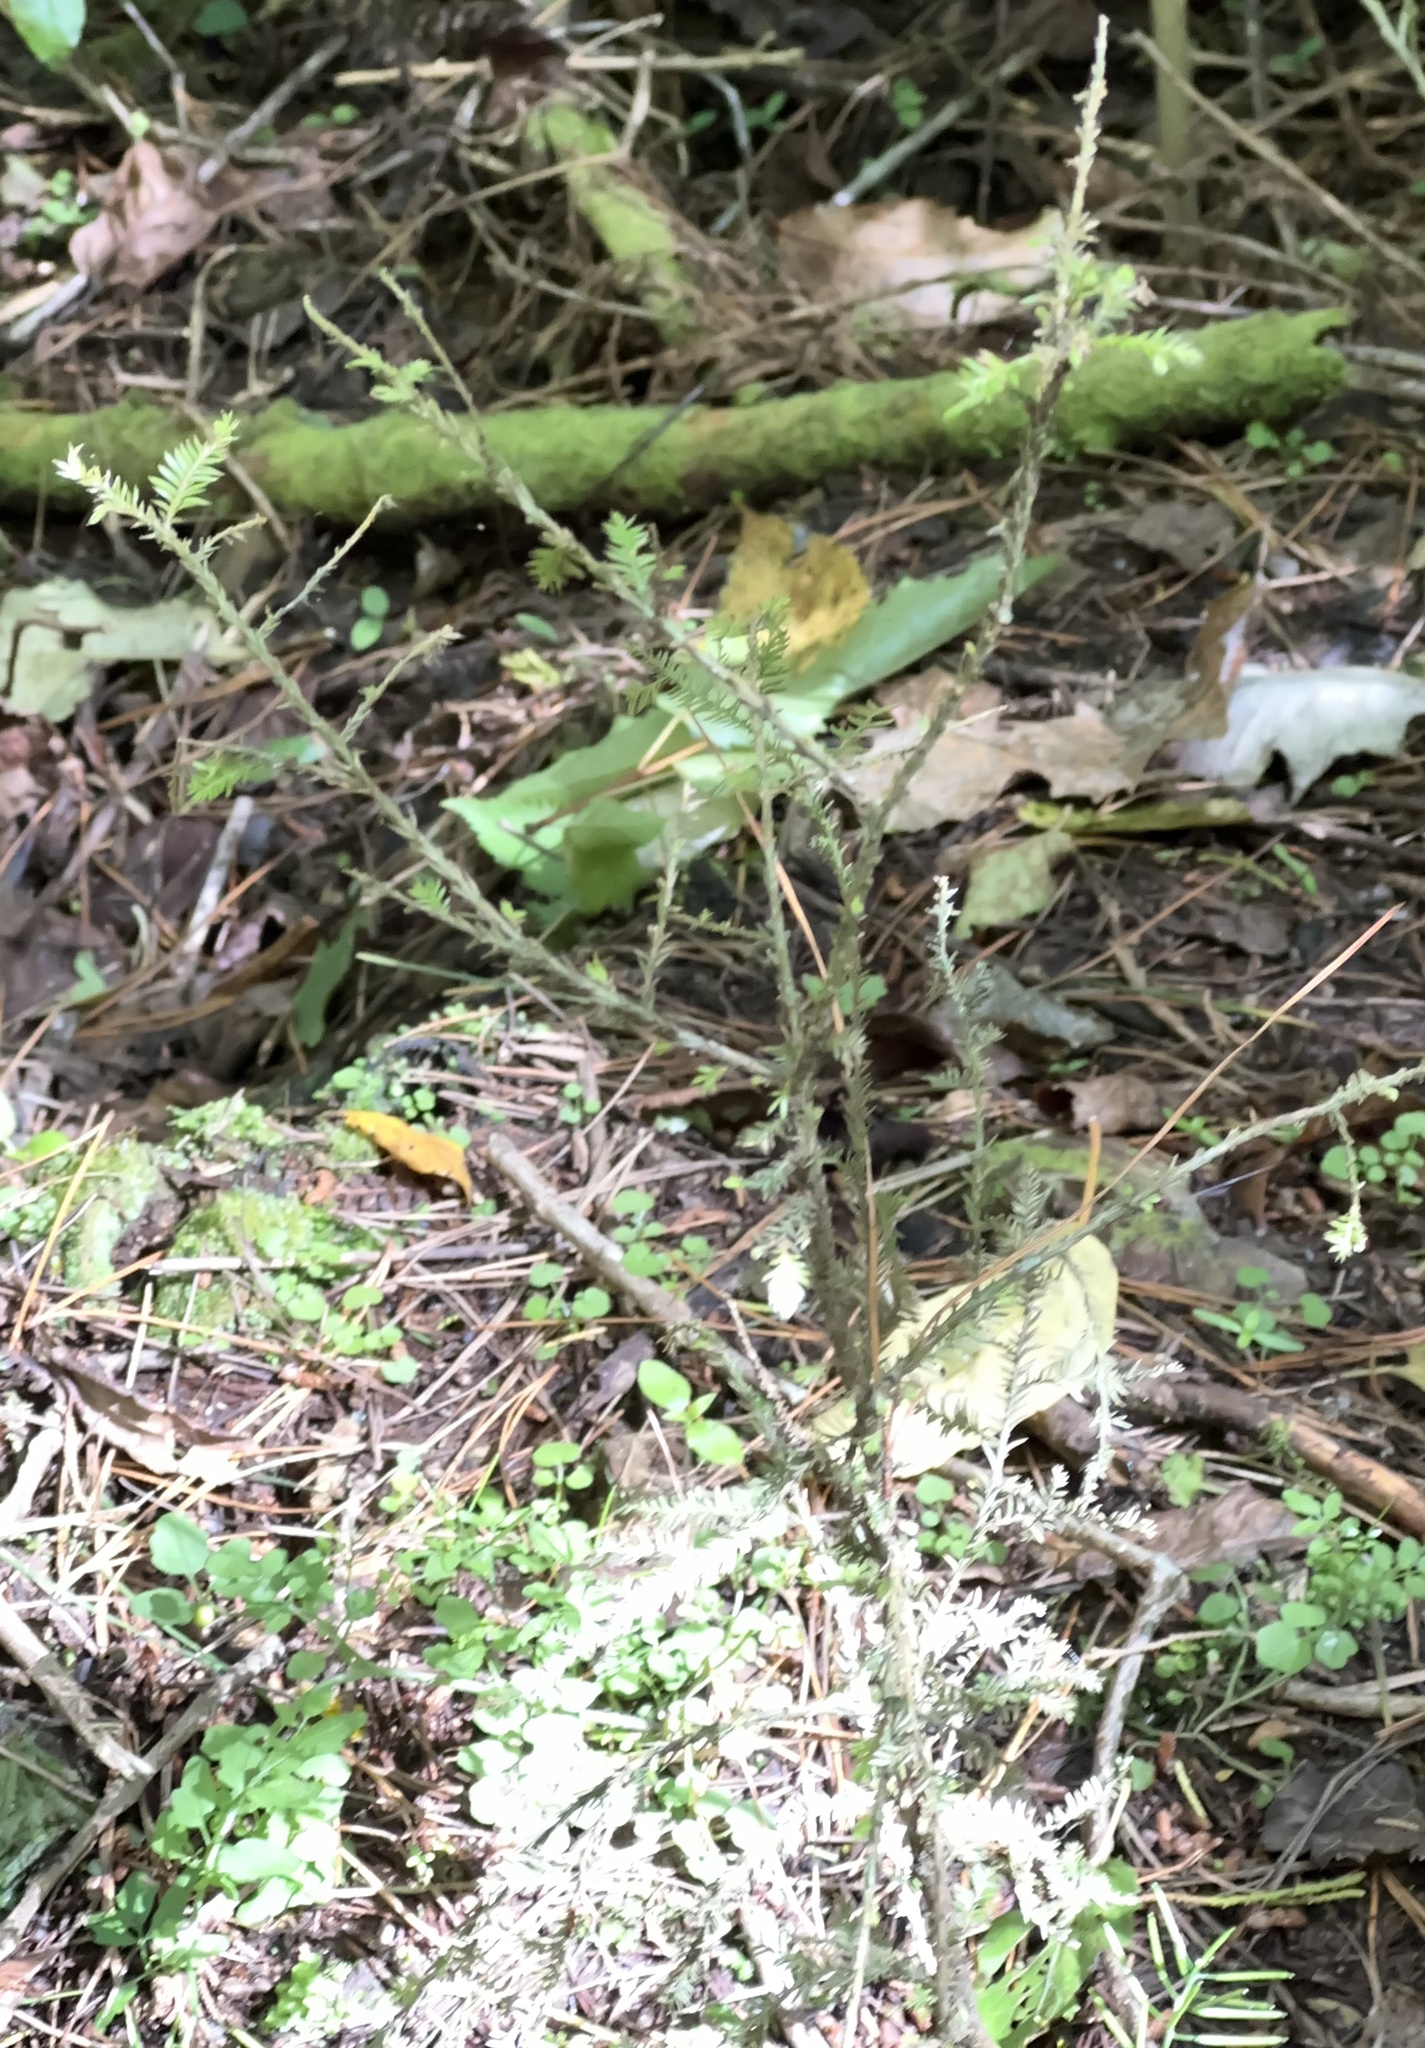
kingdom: Plantae
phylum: Tracheophyta
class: Pinopsida
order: Pinales
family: Podocarpaceae
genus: Dacrycarpus
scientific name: Dacrycarpus dacrydioides
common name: White pine
